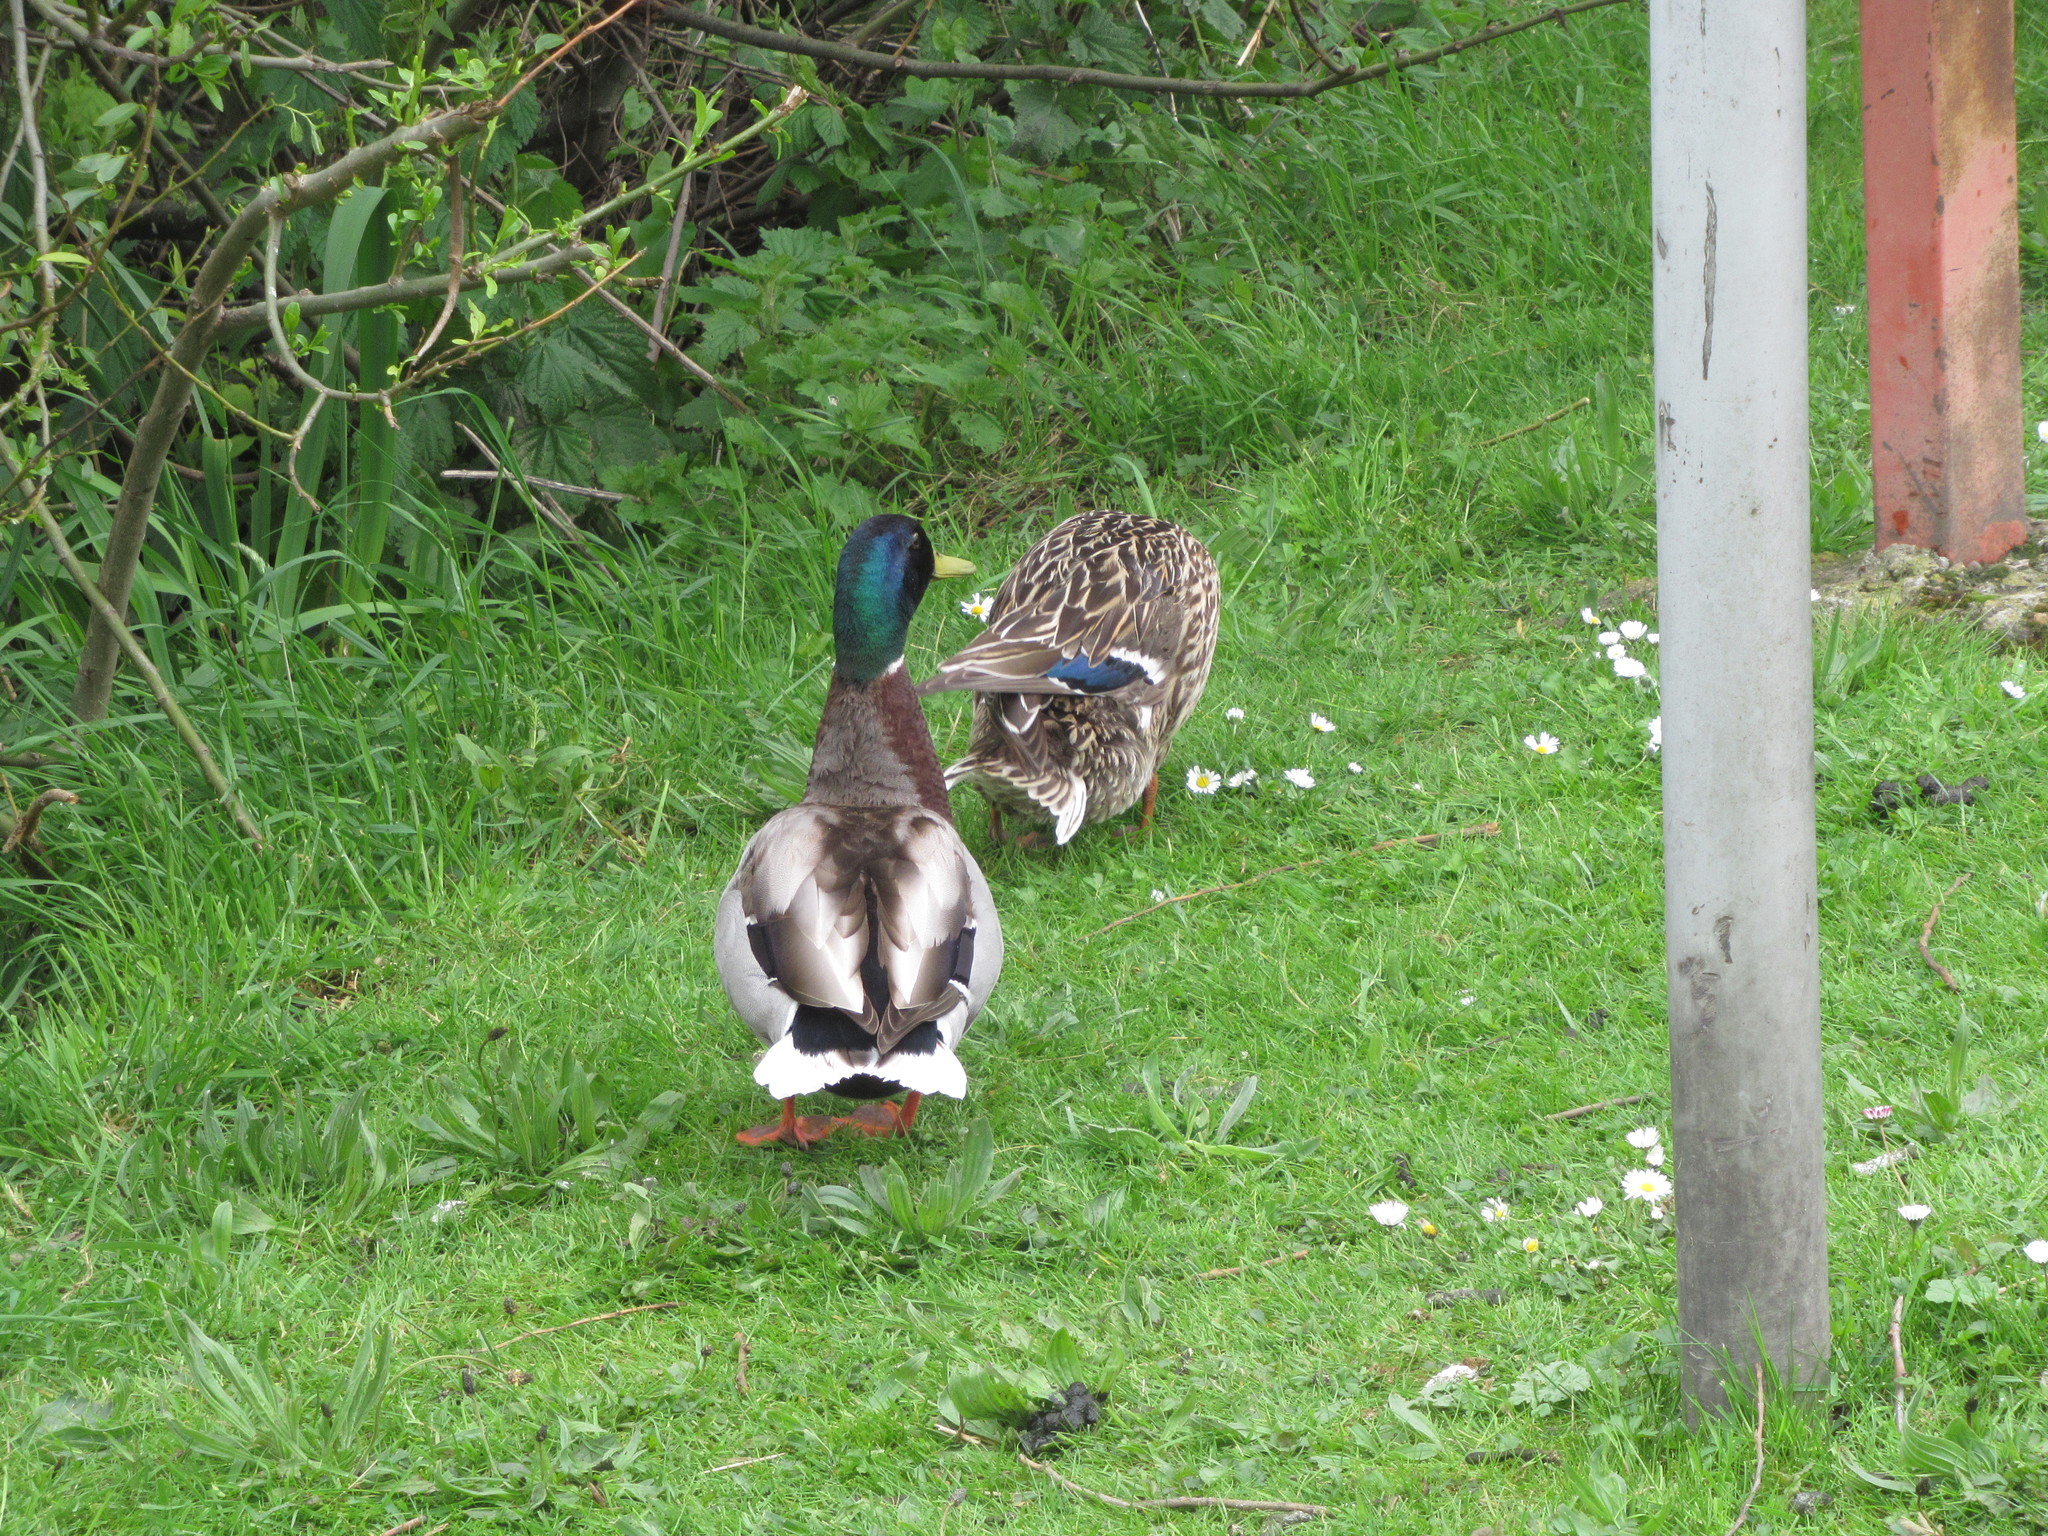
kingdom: Animalia
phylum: Chordata
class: Aves
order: Anseriformes
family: Anatidae
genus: Anas
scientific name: Anas platyrhynchos
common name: Mallard
